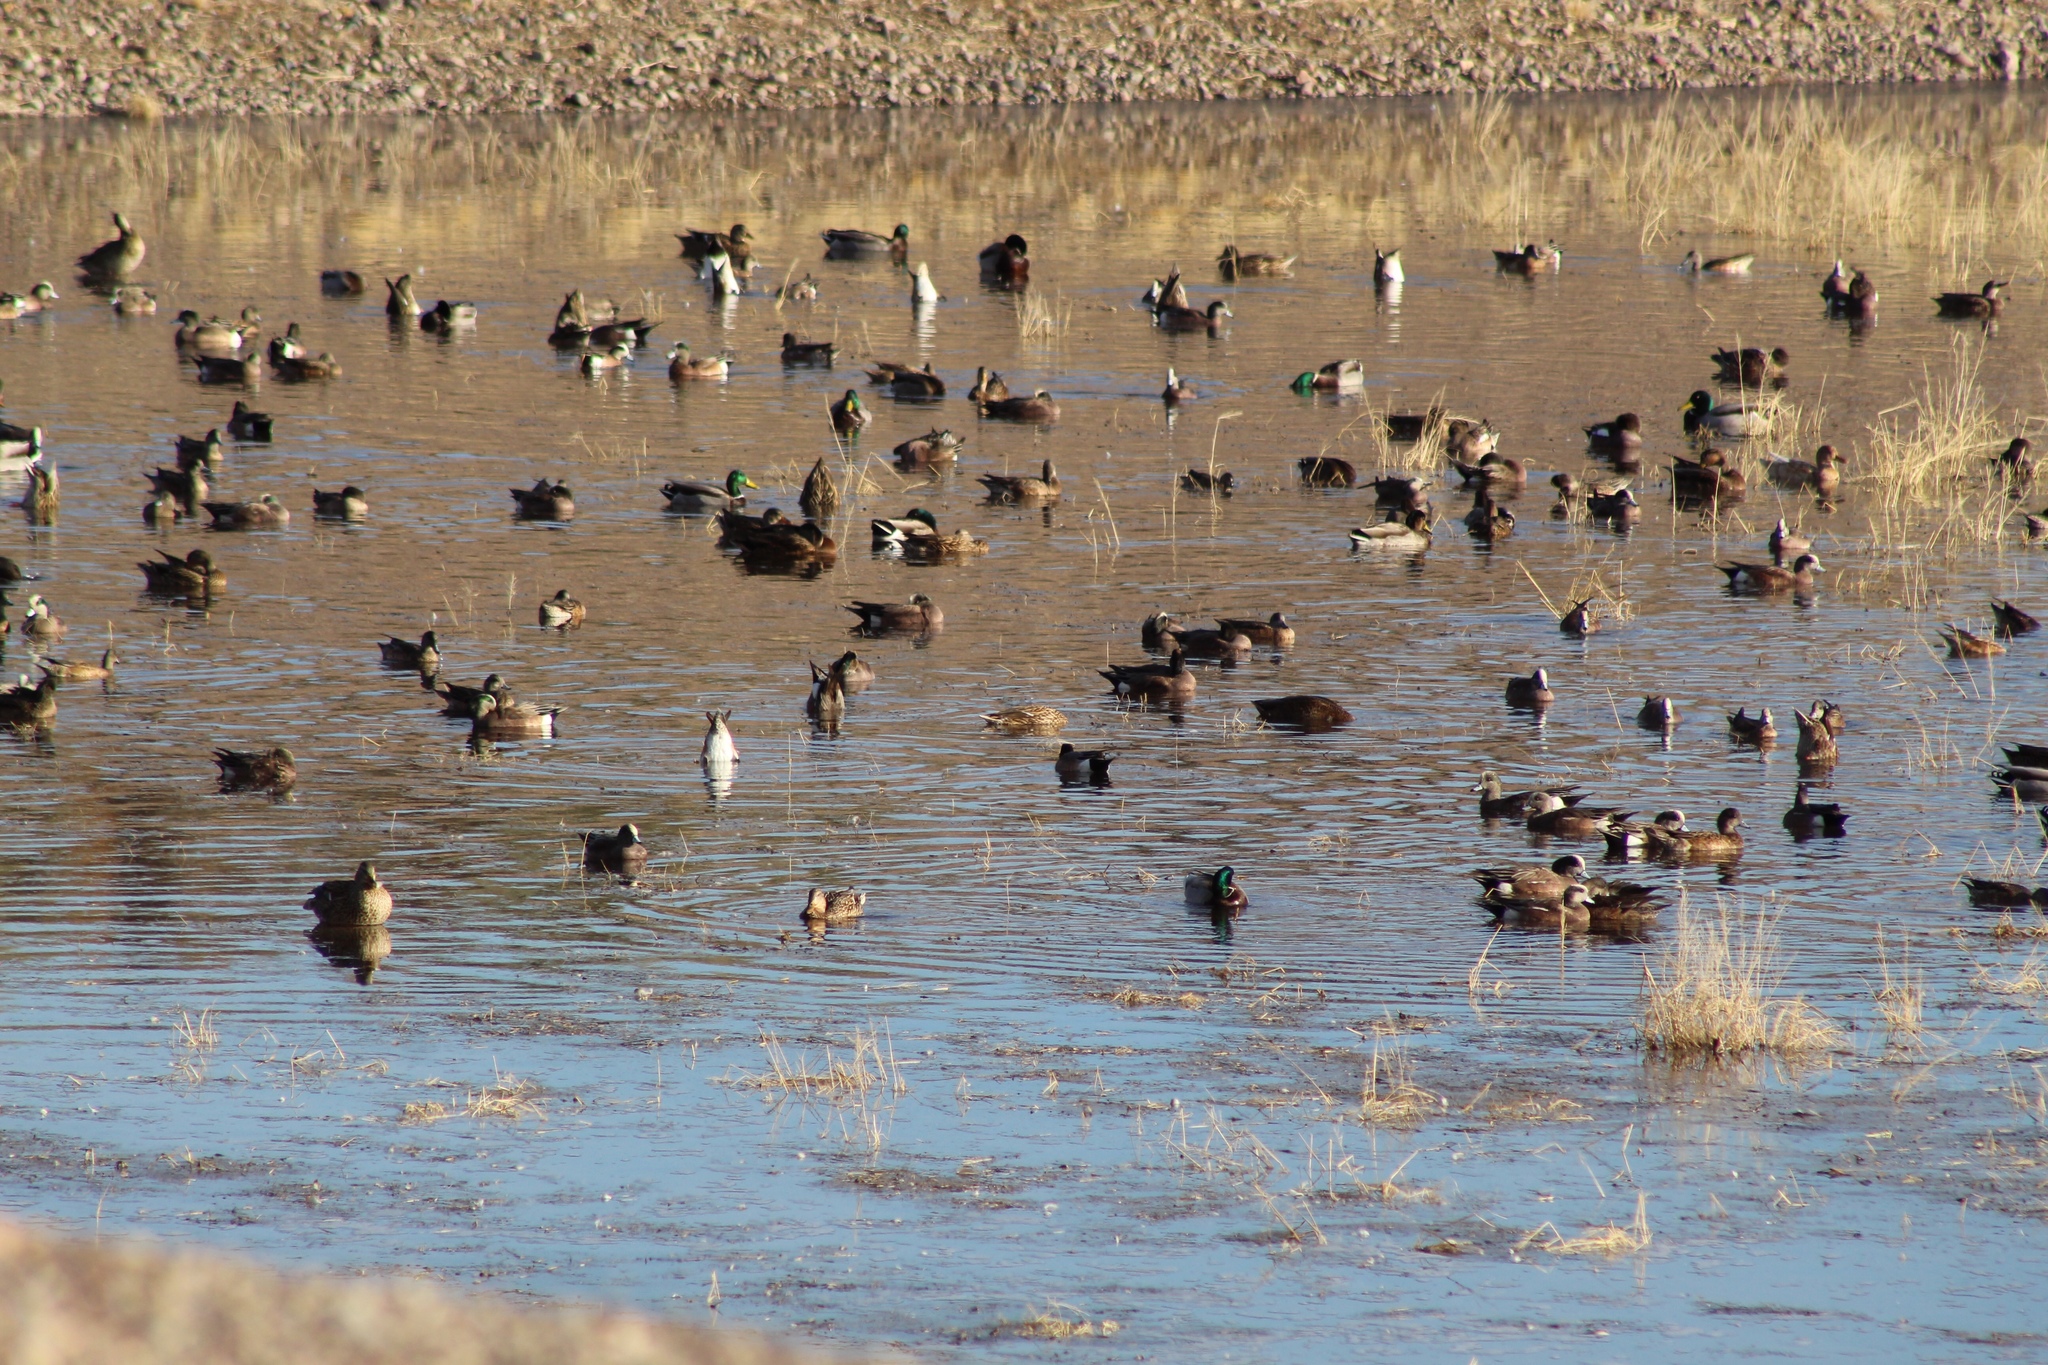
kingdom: Animalia
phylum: Chordata
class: Aves
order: Anseriformes
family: Anatidae
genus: Anas
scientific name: Anas platyrhynchos
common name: Mallard
